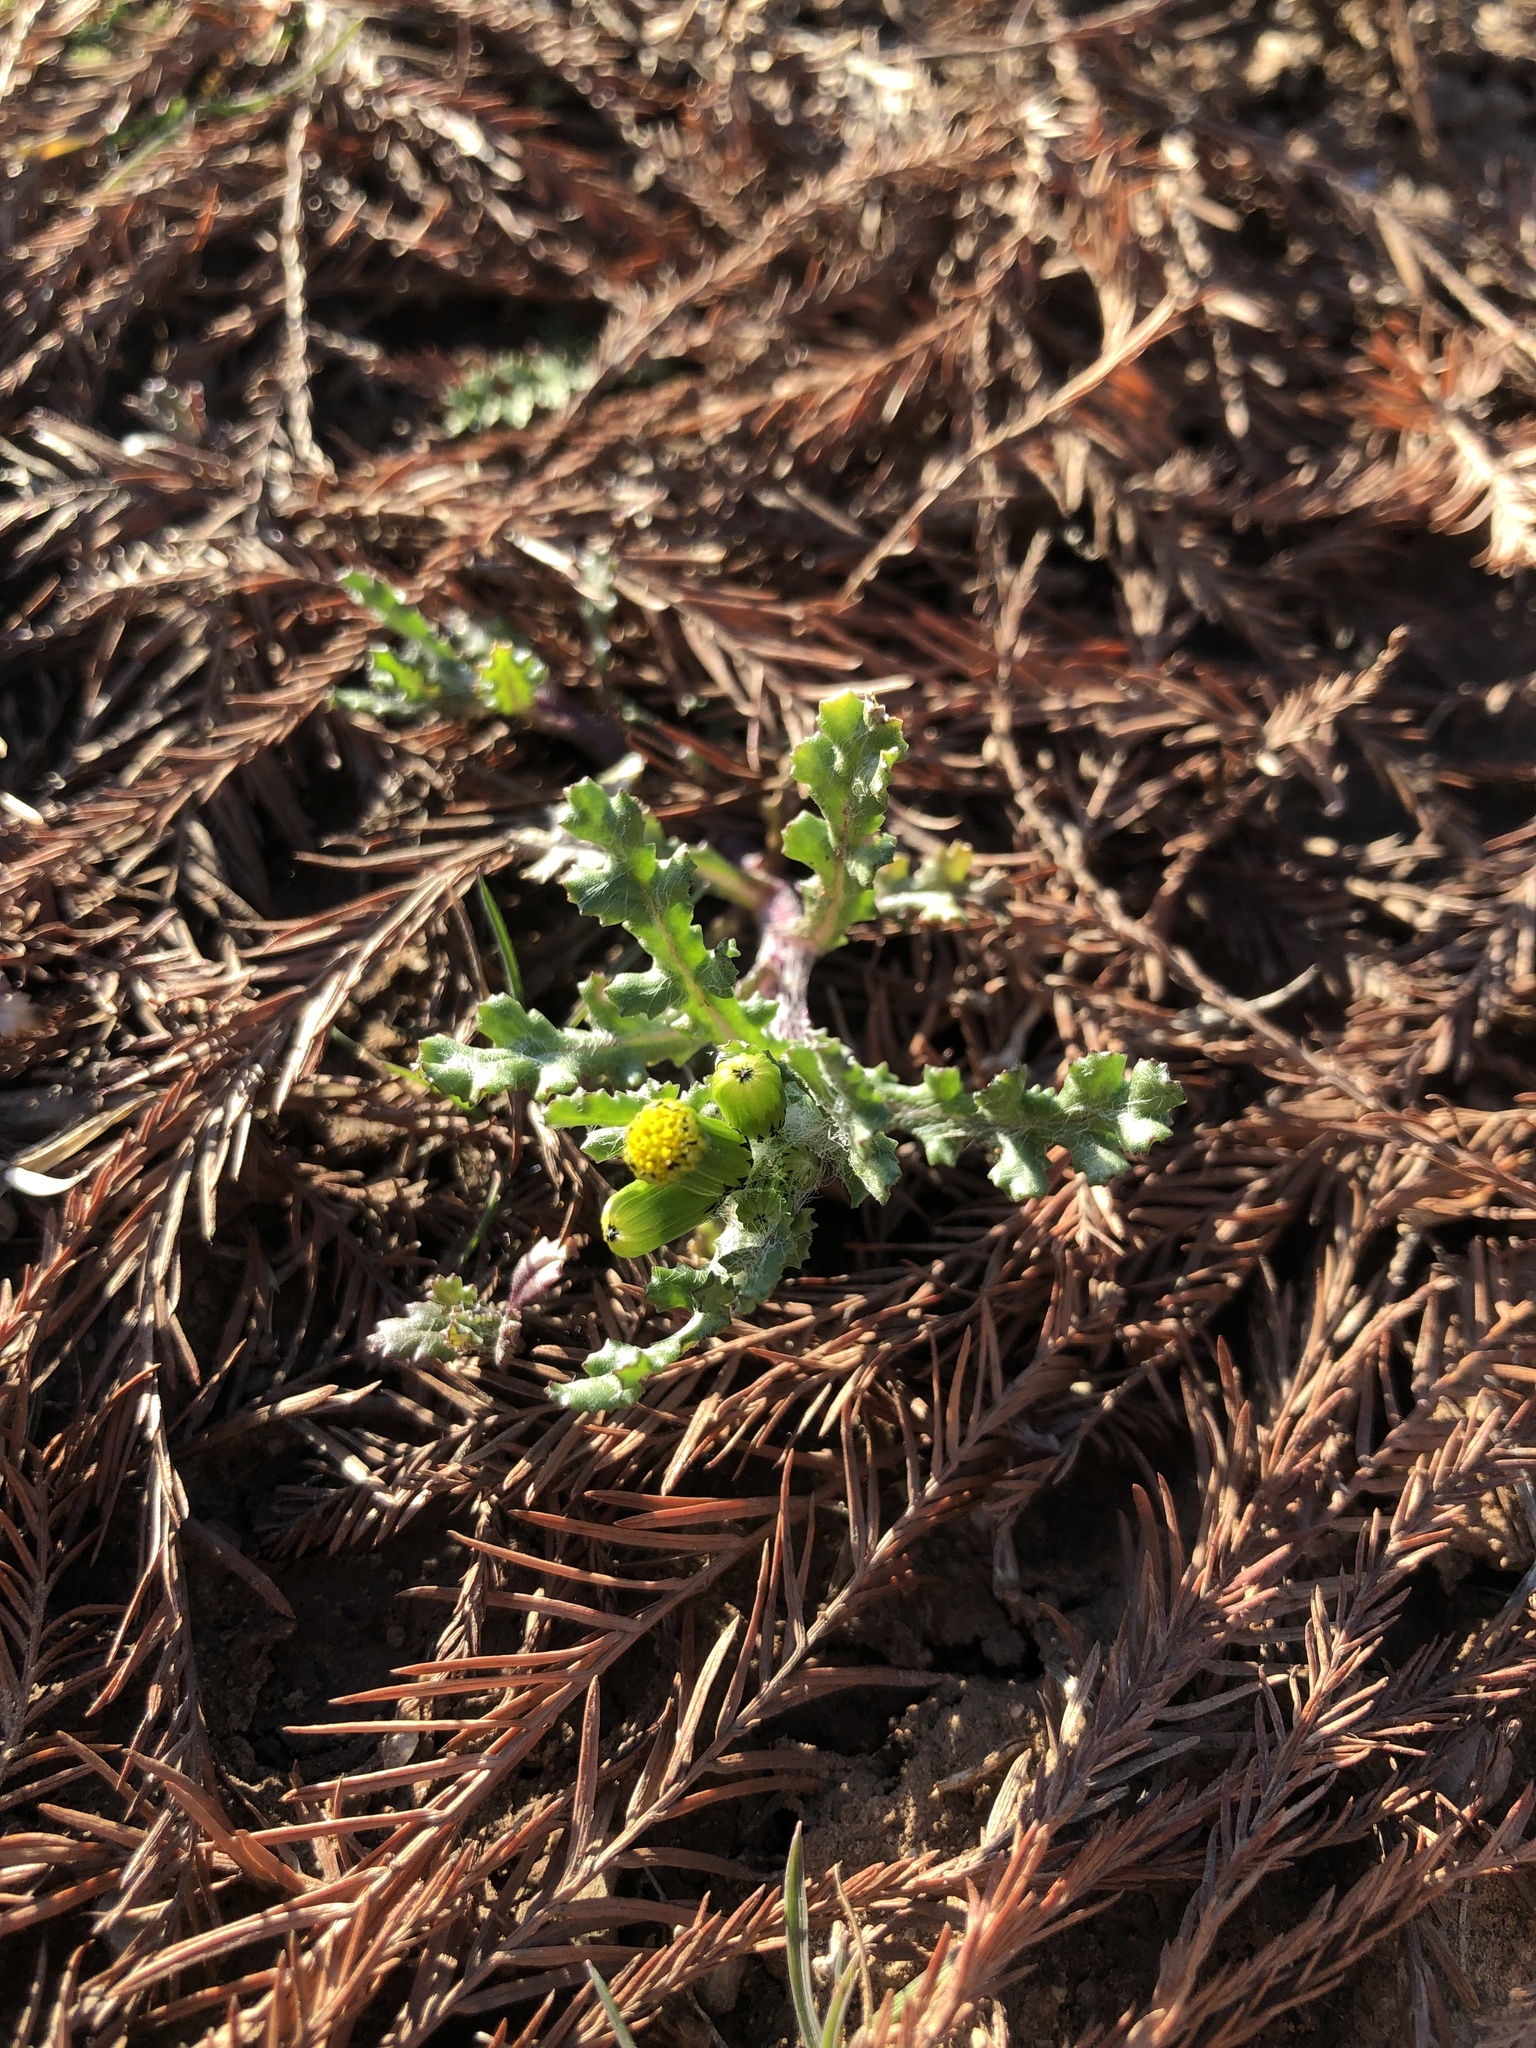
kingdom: Plantae
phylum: Tracheophyta
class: Magnoliopsida
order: Asterales
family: Asteraceae
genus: Senecio
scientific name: Senecio vulgaris
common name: Old-man-in-the-spring
